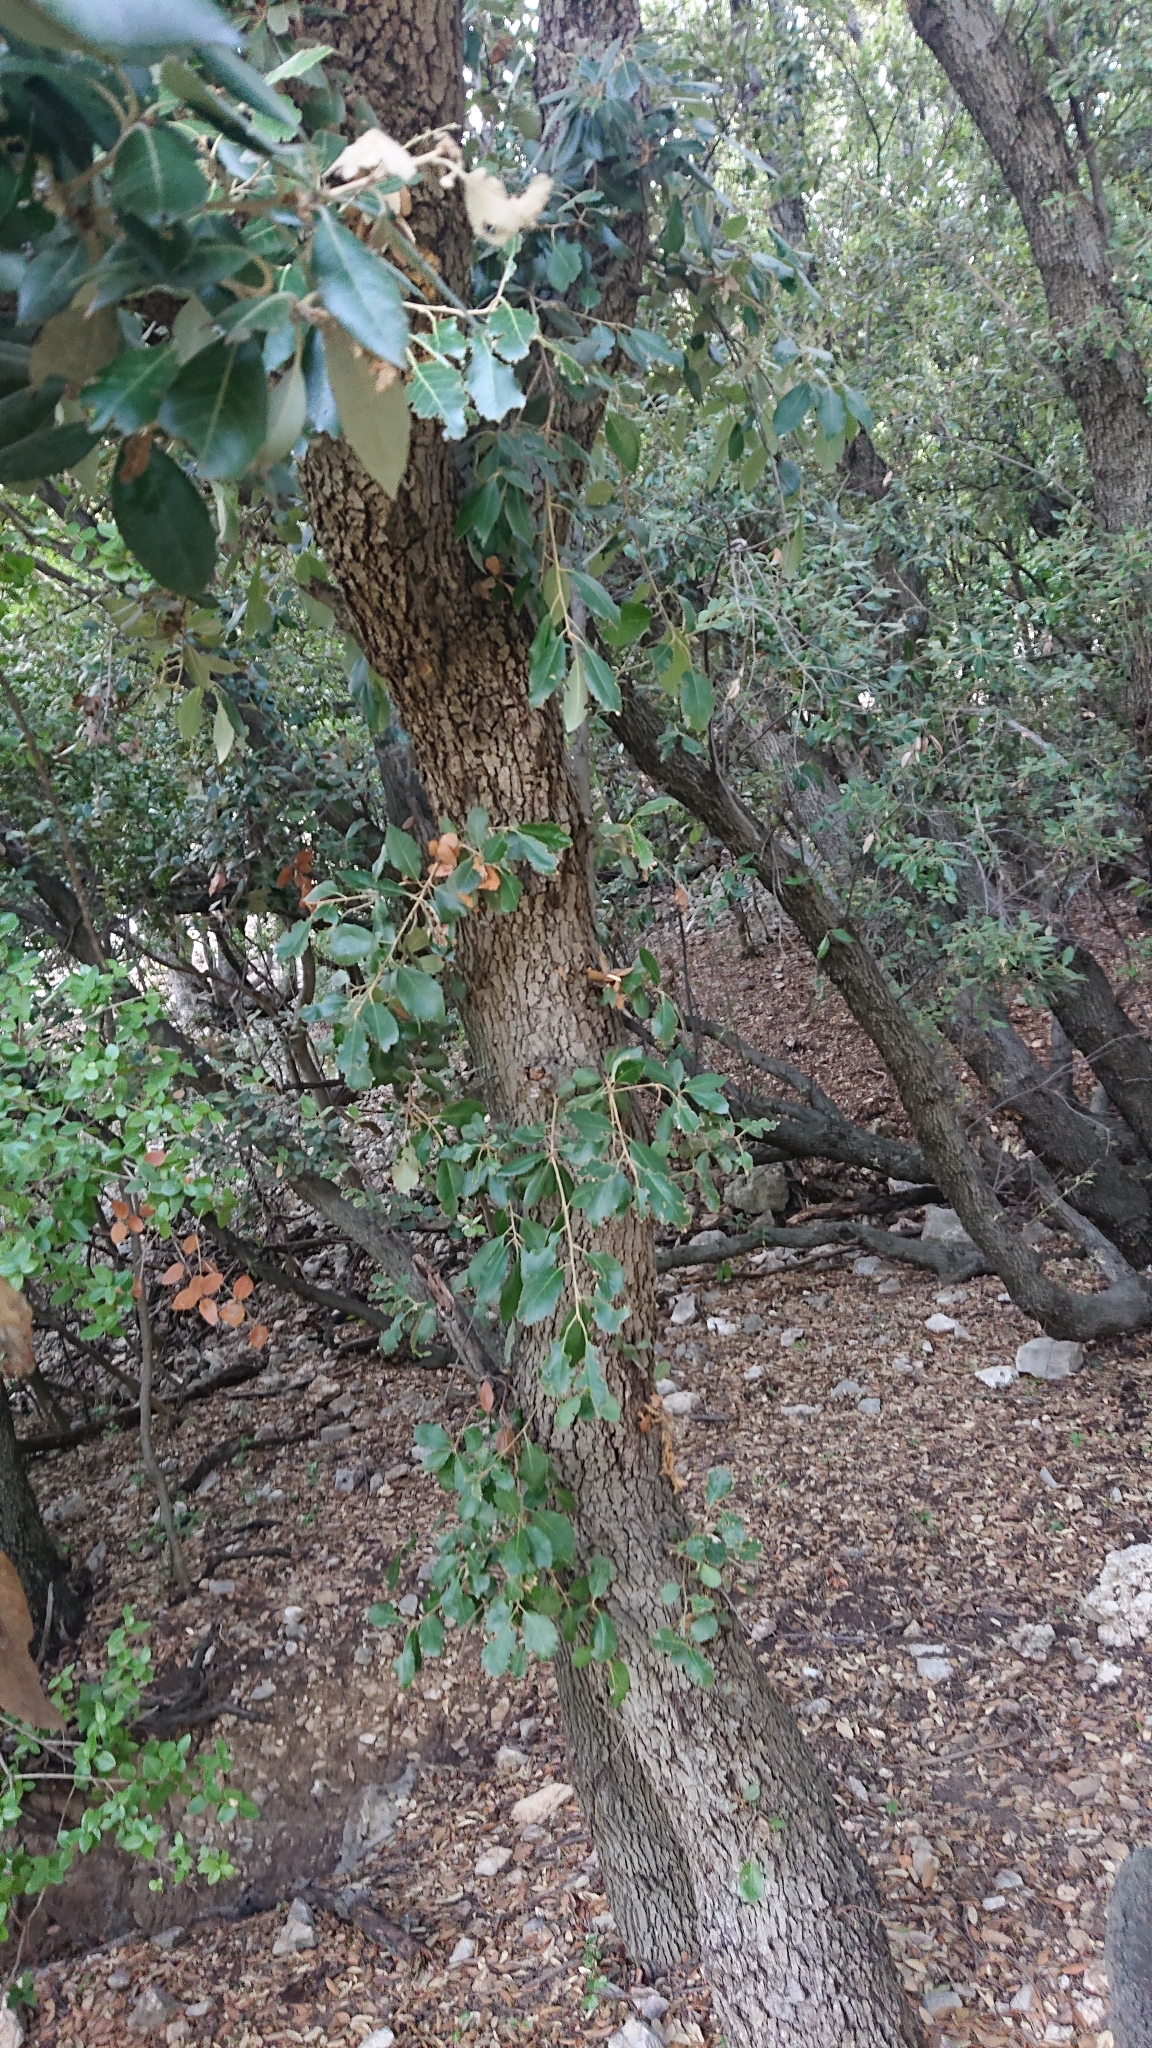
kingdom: Plantae
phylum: Tracheophyta
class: Magnoliopsida
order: Fagales
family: Fagaceae
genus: Quercus
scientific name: Quercus ilex
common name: Evergreen oak
